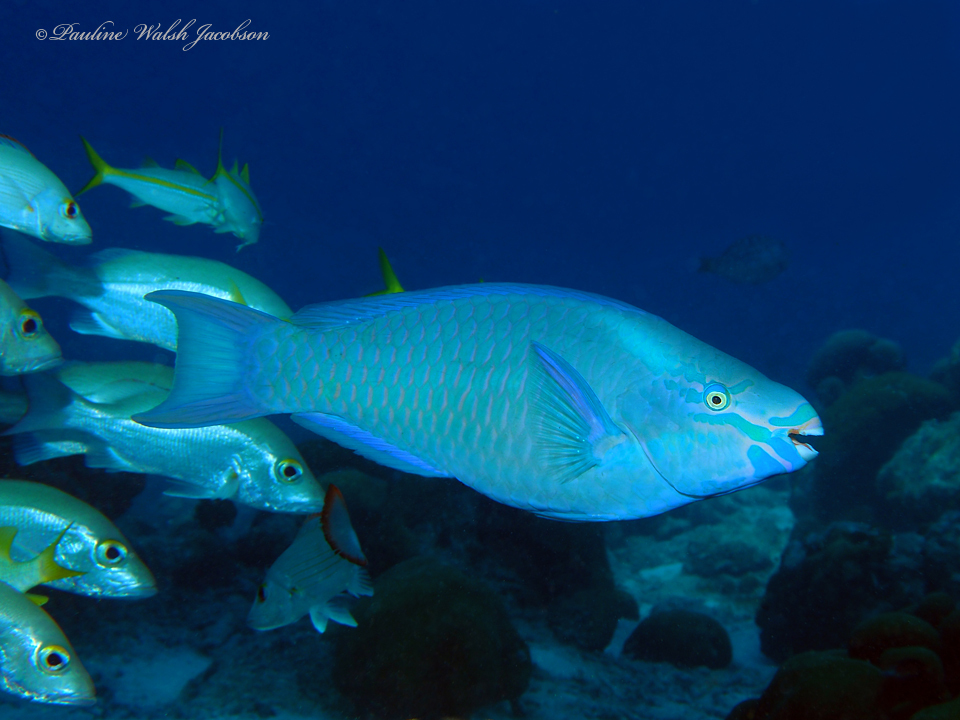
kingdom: Animalia
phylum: Chordata
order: Perciformes
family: Scaridae
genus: Scarus
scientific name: Scarus vetula
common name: Queen parrotfish
